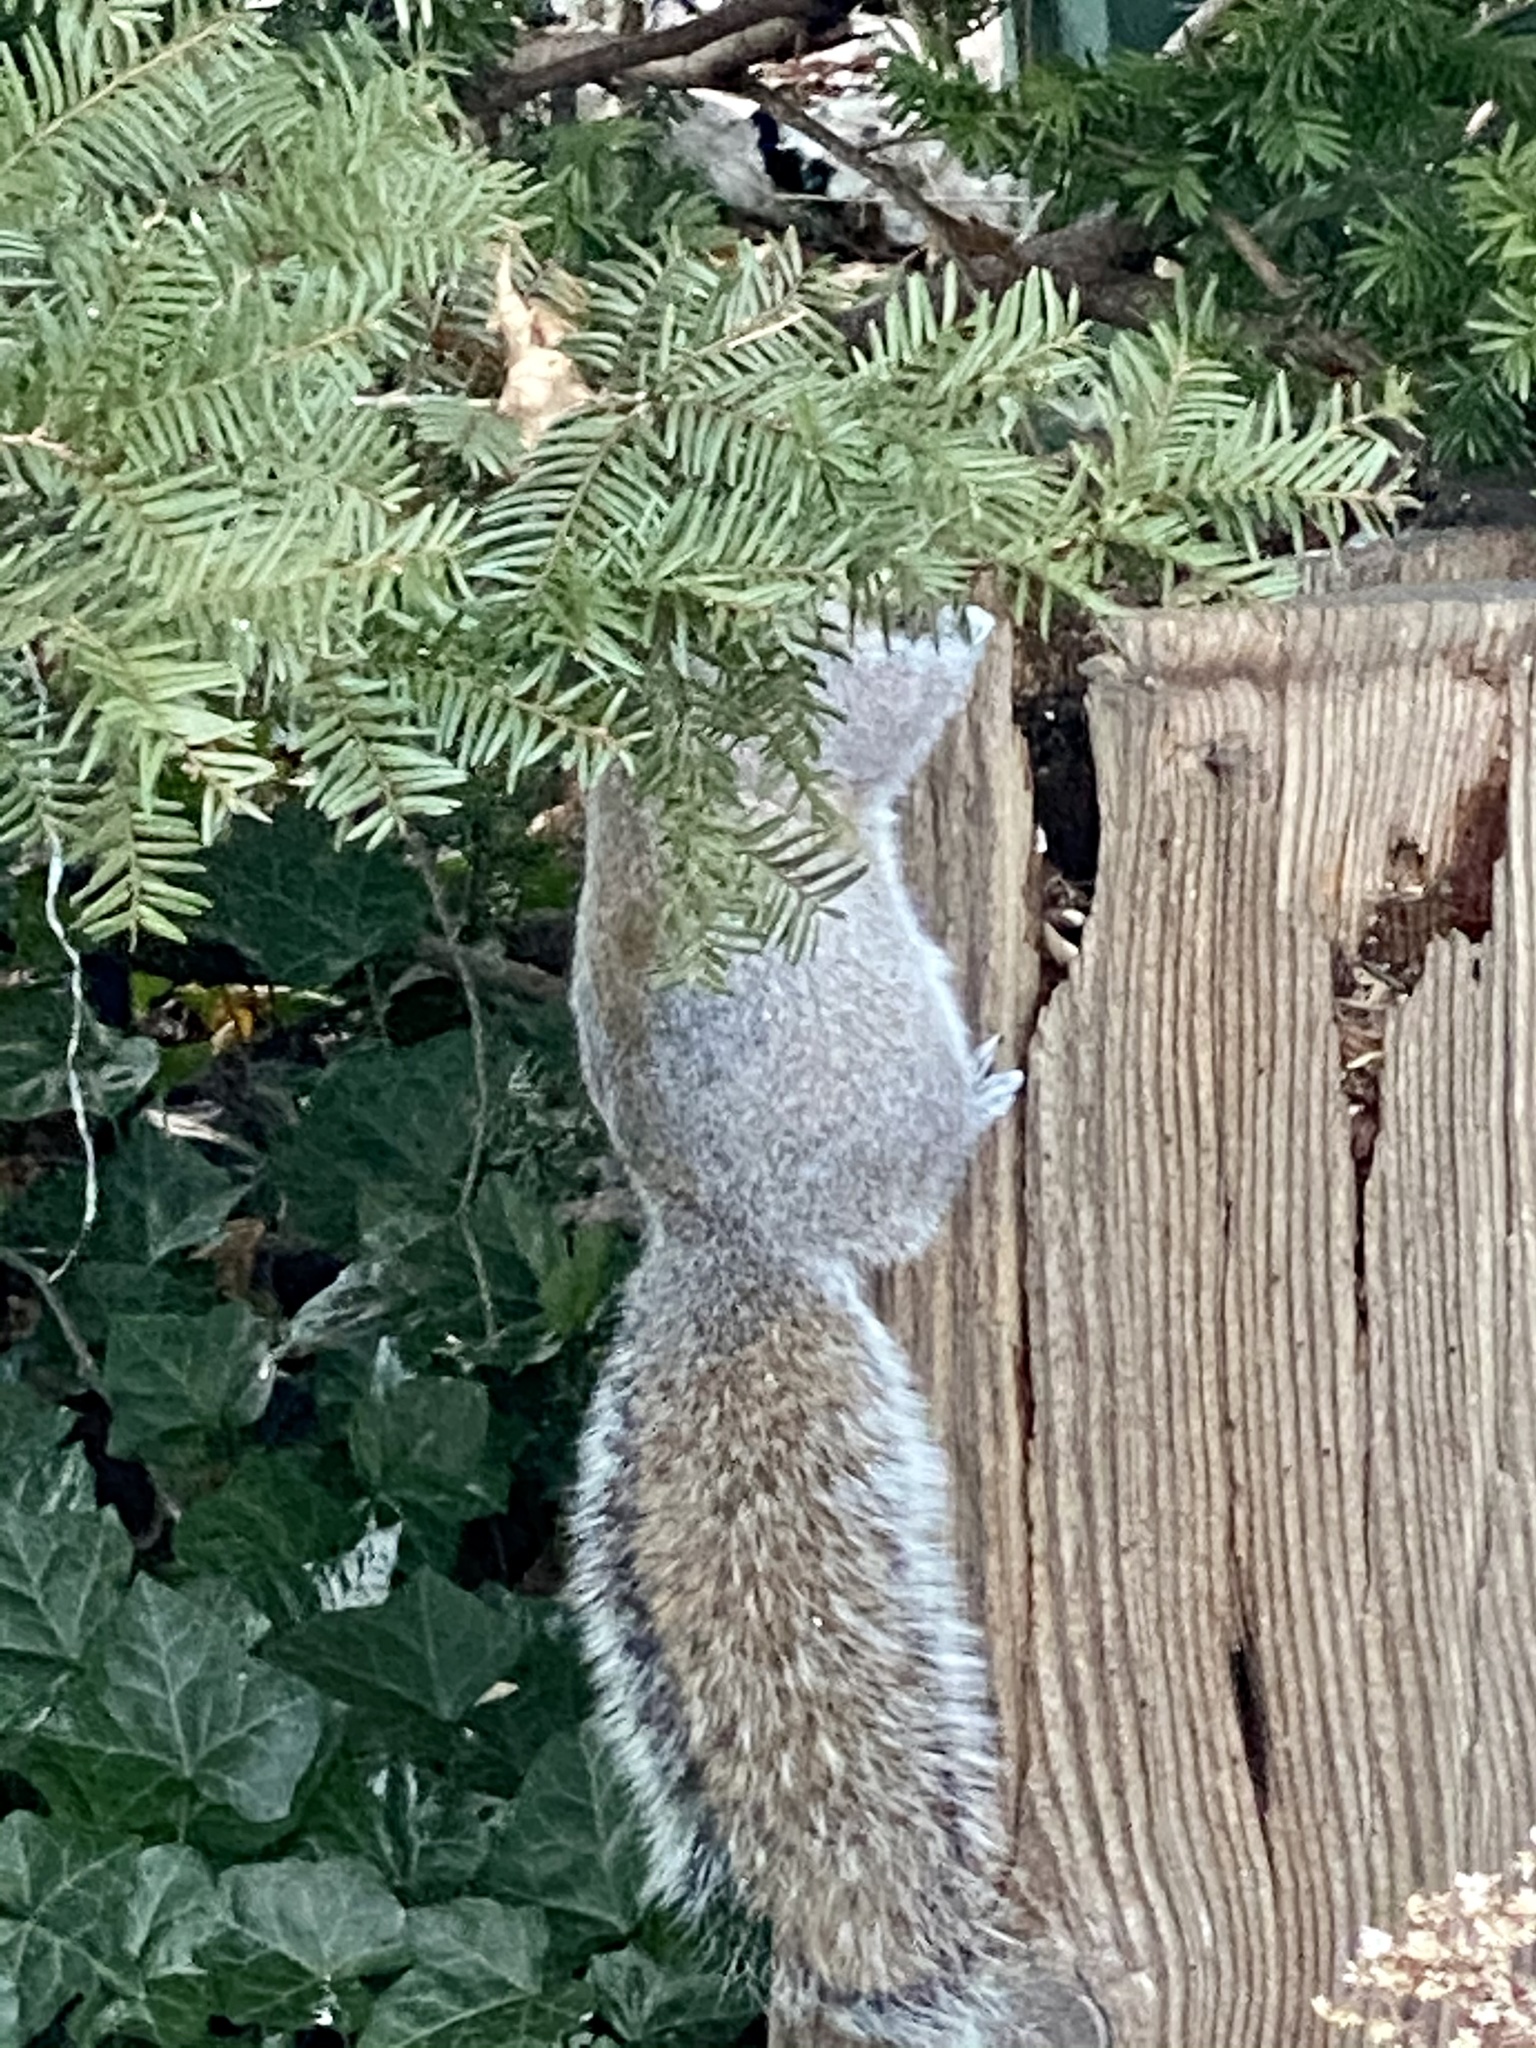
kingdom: Animalia
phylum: Chordata
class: Mammalia
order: Rodentia
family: Sciuridae
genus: Sciurus
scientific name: Sciurus carolinensis
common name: Eastern gray squirrel
